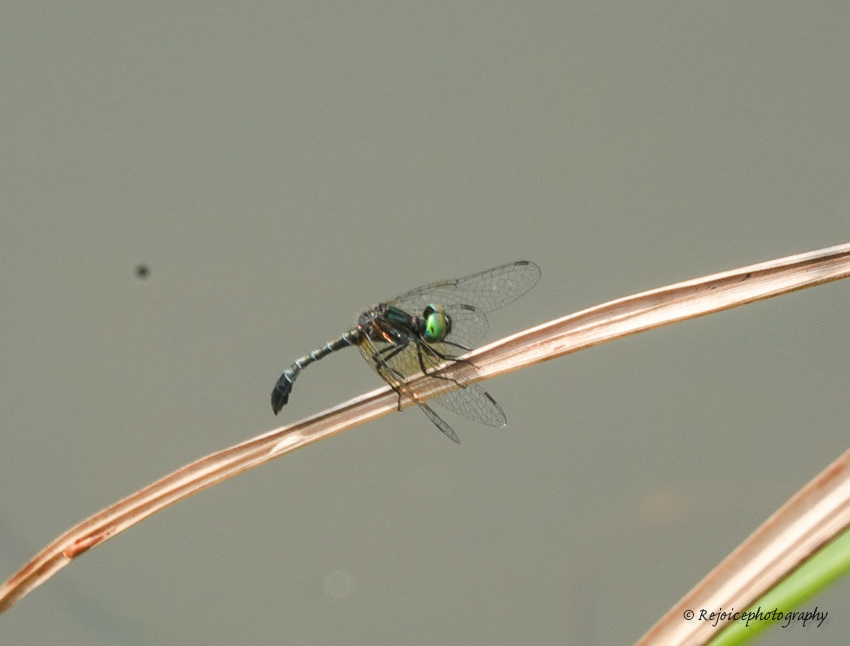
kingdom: Animalia
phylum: Arthropoda
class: Insecta
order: Odonata
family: Libellulidae
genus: Nannophyopsis
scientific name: Nannophyopsis clara
